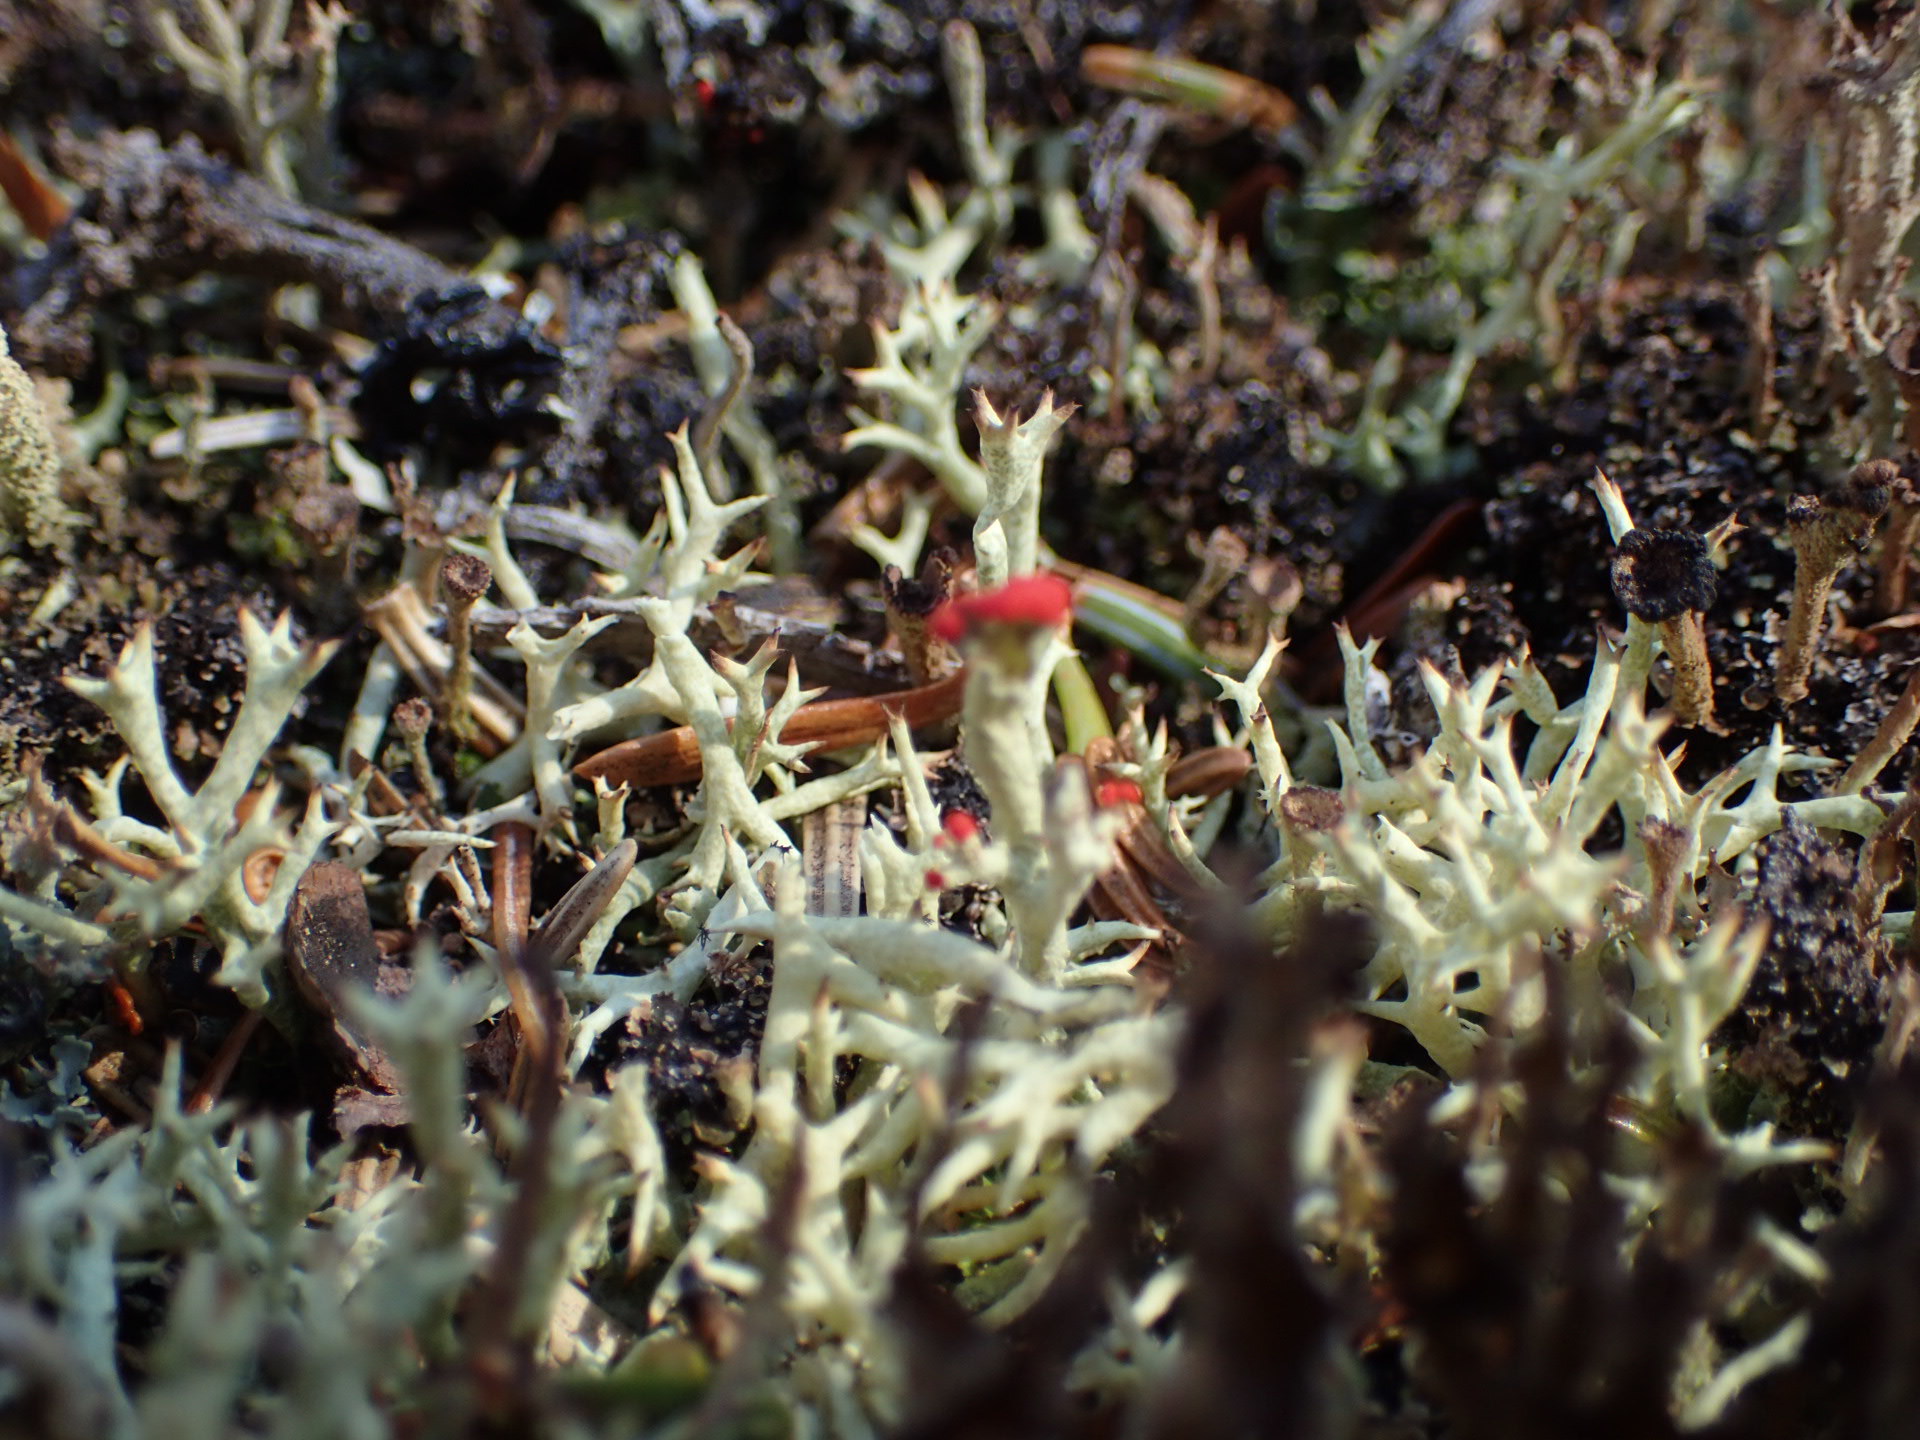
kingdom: Fungi
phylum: Ascomycota
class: Lecanoromycetes
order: Lecanorales
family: Cladoniaceae
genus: Cladonia
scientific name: Cladonia cristatella
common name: British soldier lichen
